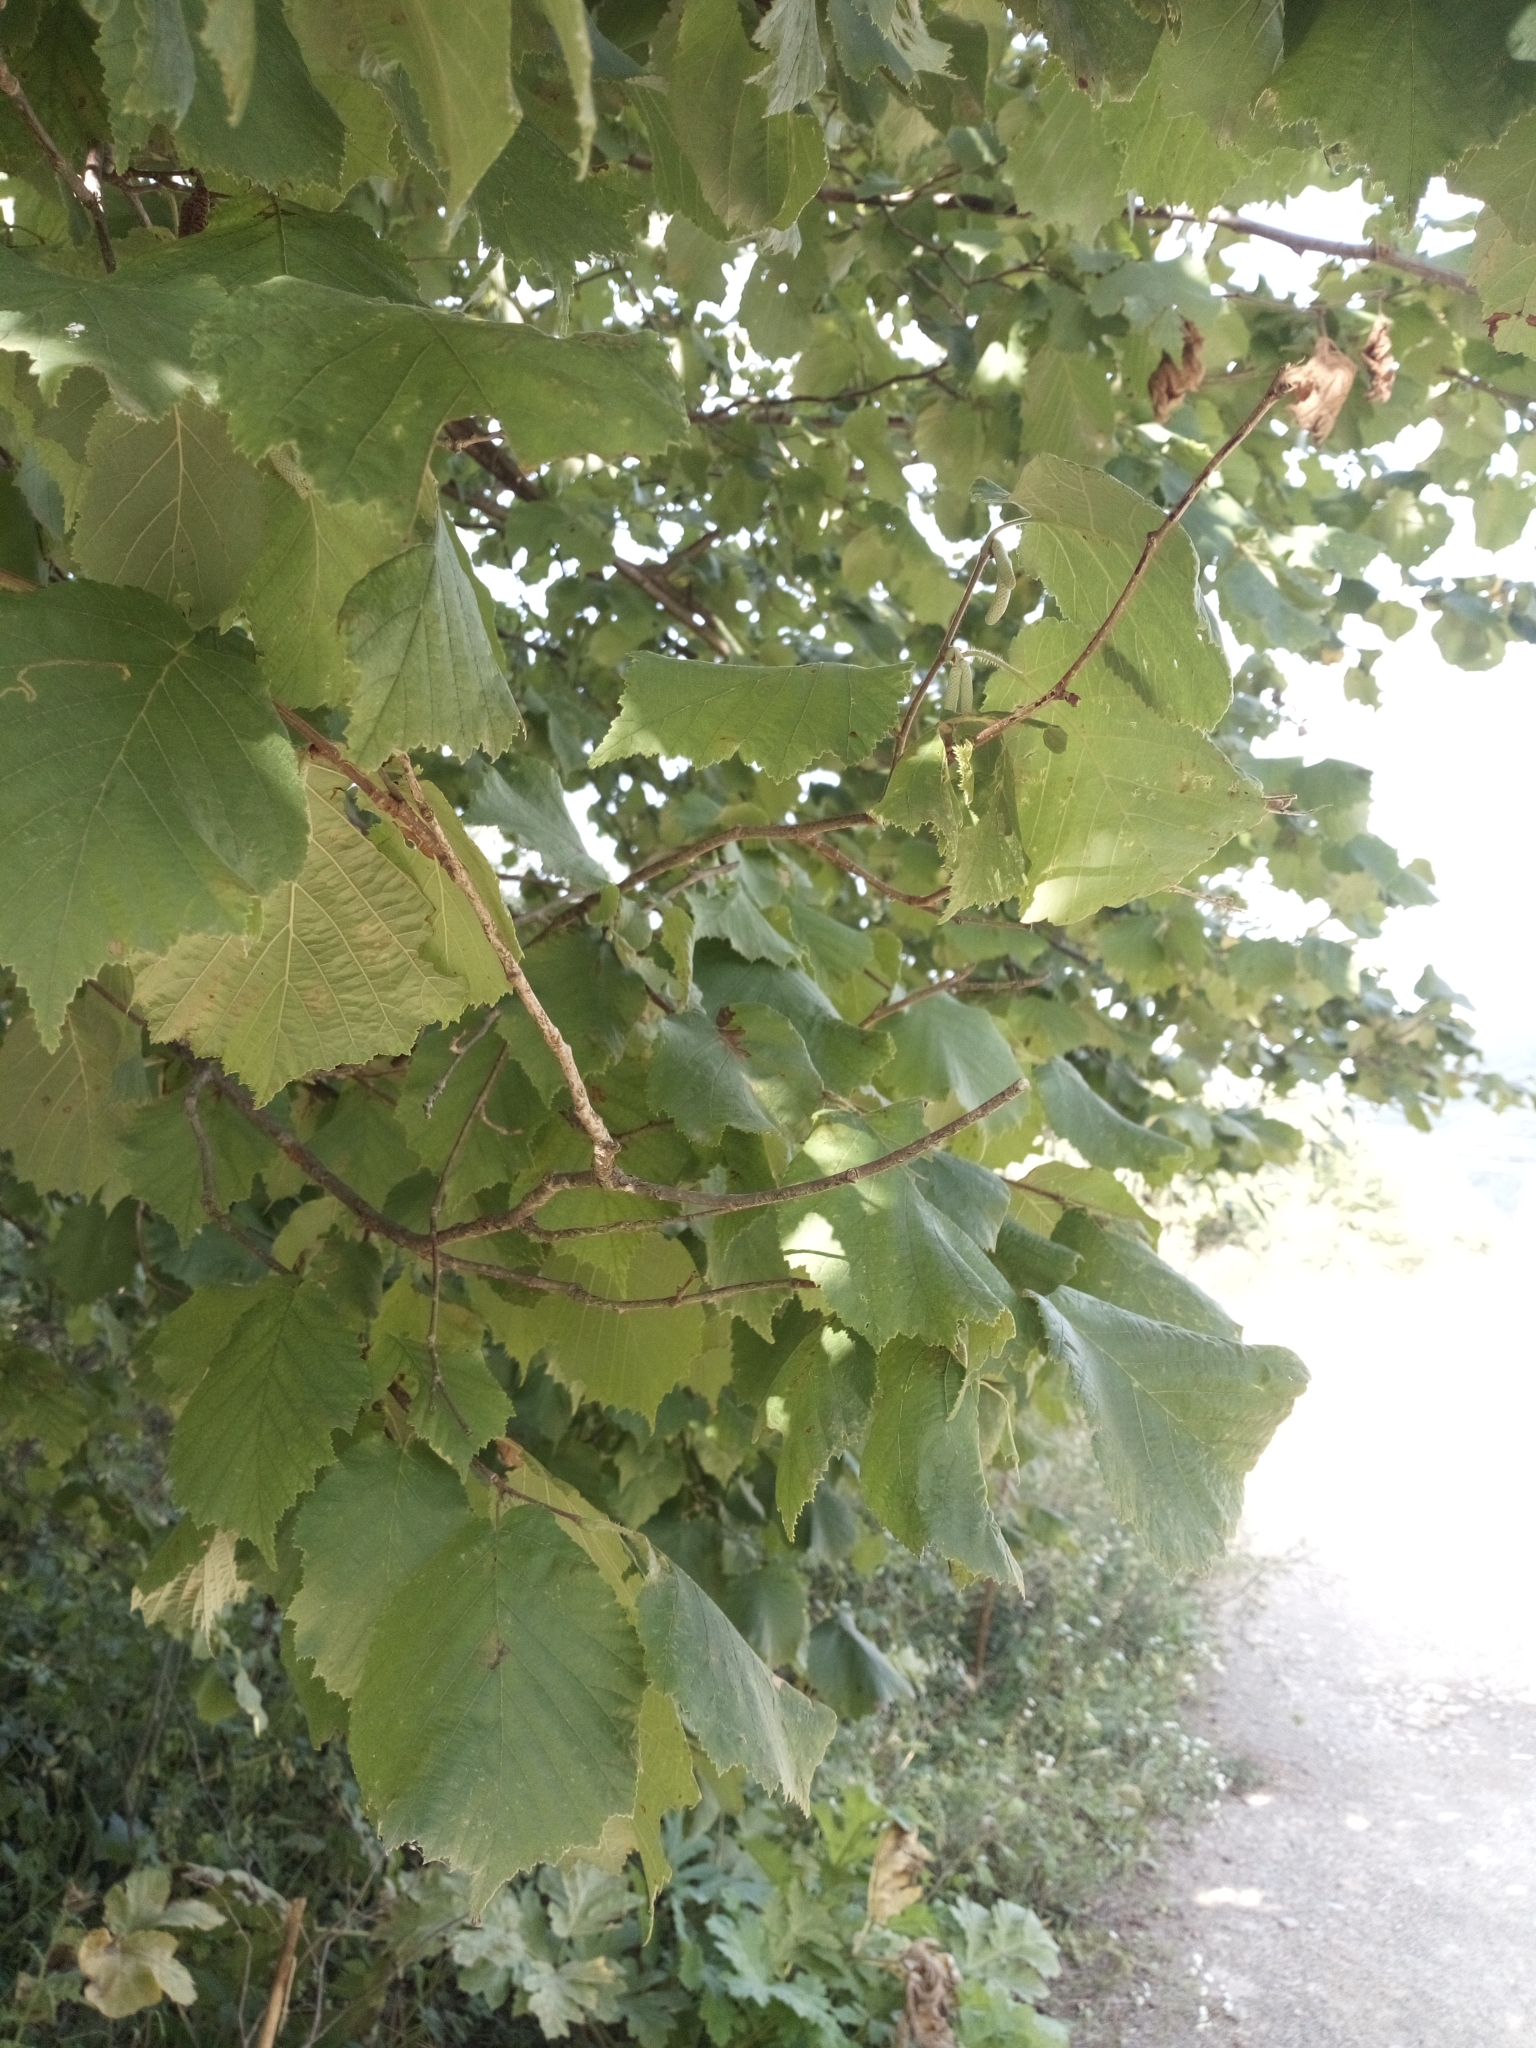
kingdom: Plantae
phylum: Tracheophyta
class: Magnoliopsida
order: Fagales
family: Betulaceae
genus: Corylus
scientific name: Corylus avellana
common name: European hazel
